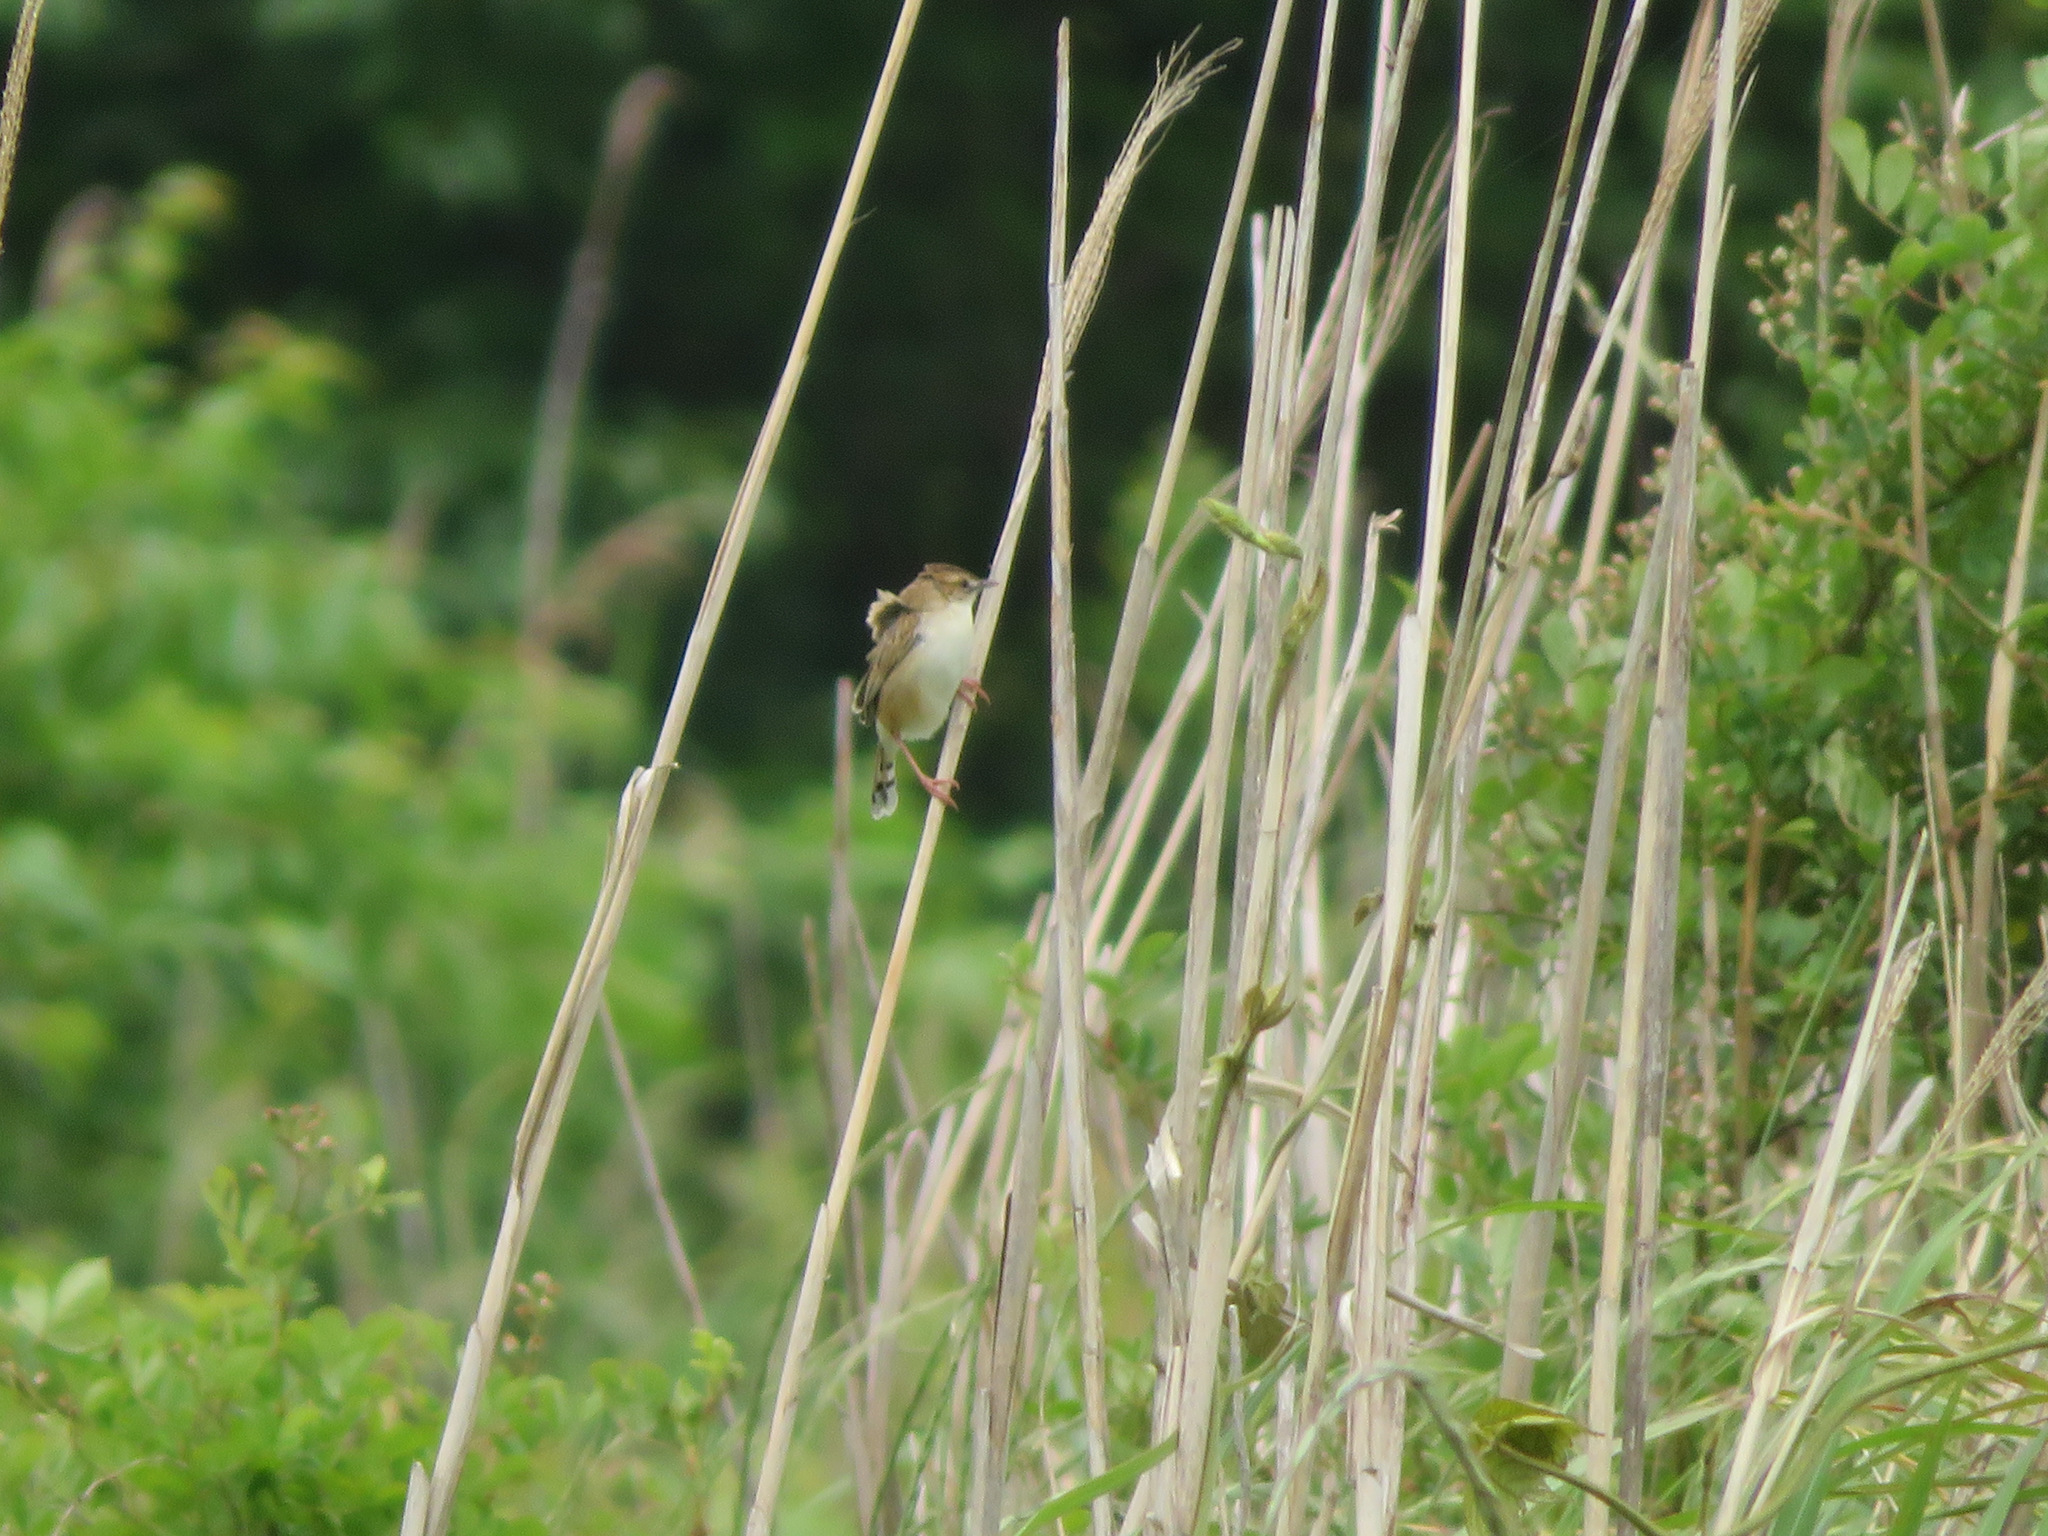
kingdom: Animalia
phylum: Chordata
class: Aves
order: Passeriformes
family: Cisticolidae
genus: Cisticola
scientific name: Cisticola juncidis
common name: Zitting cisticola
